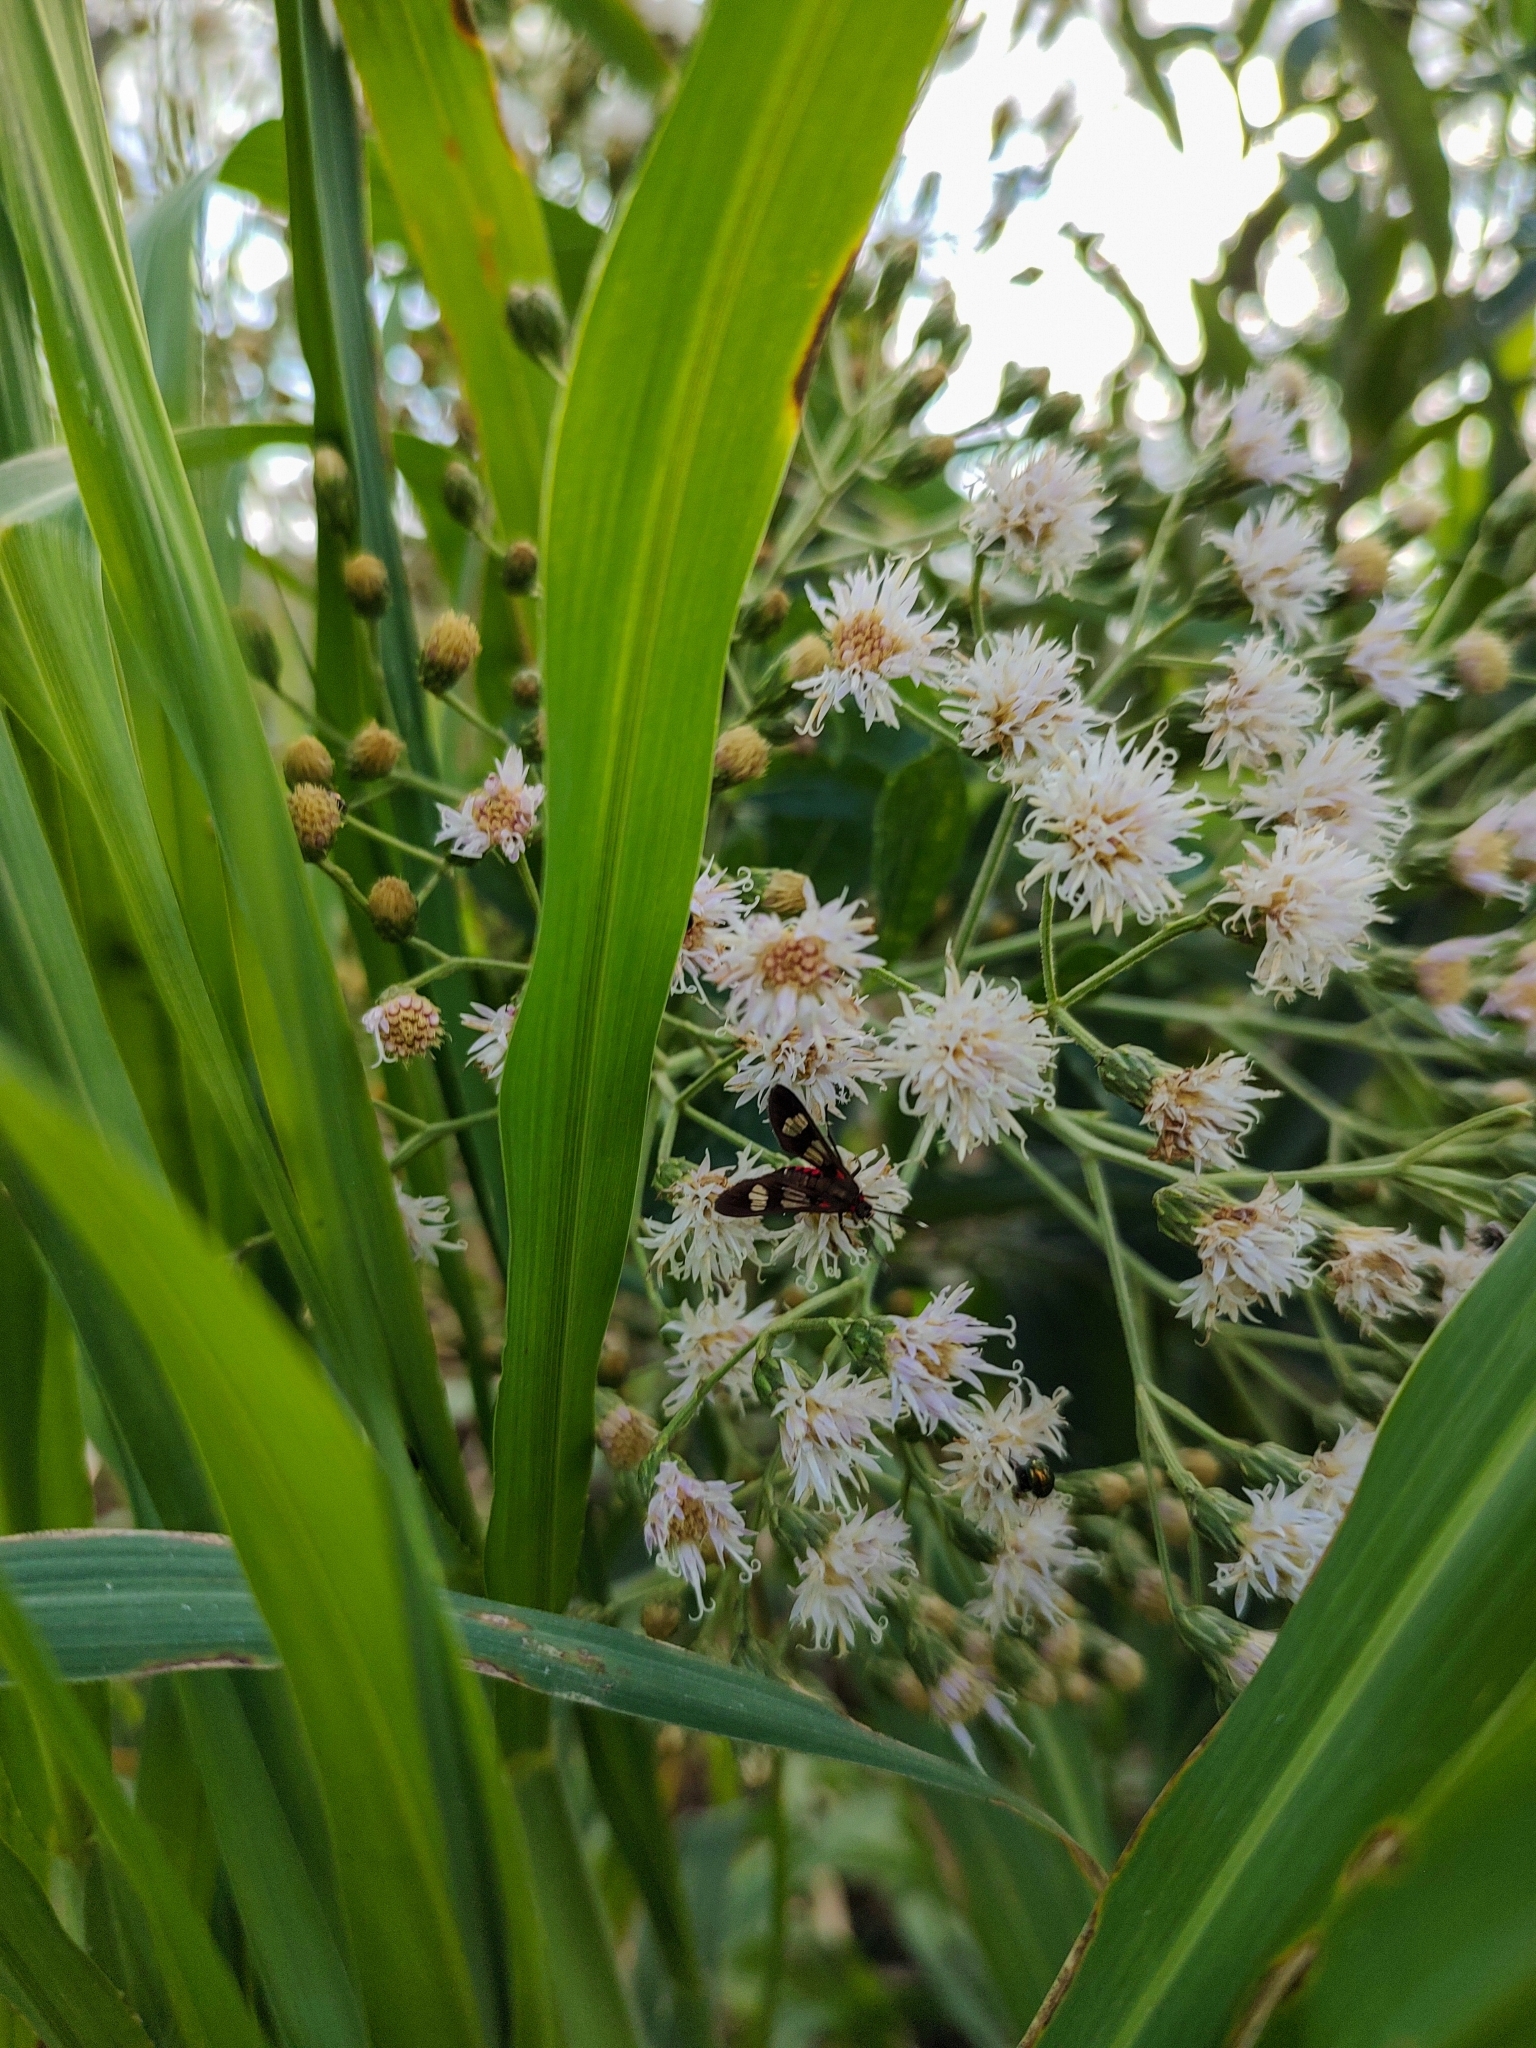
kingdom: Animalia
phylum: Arthropoda
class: Insecta
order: Lepidoptera
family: Erebidae
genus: Phoenicoprocta
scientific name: Phoenicoprocta teda
